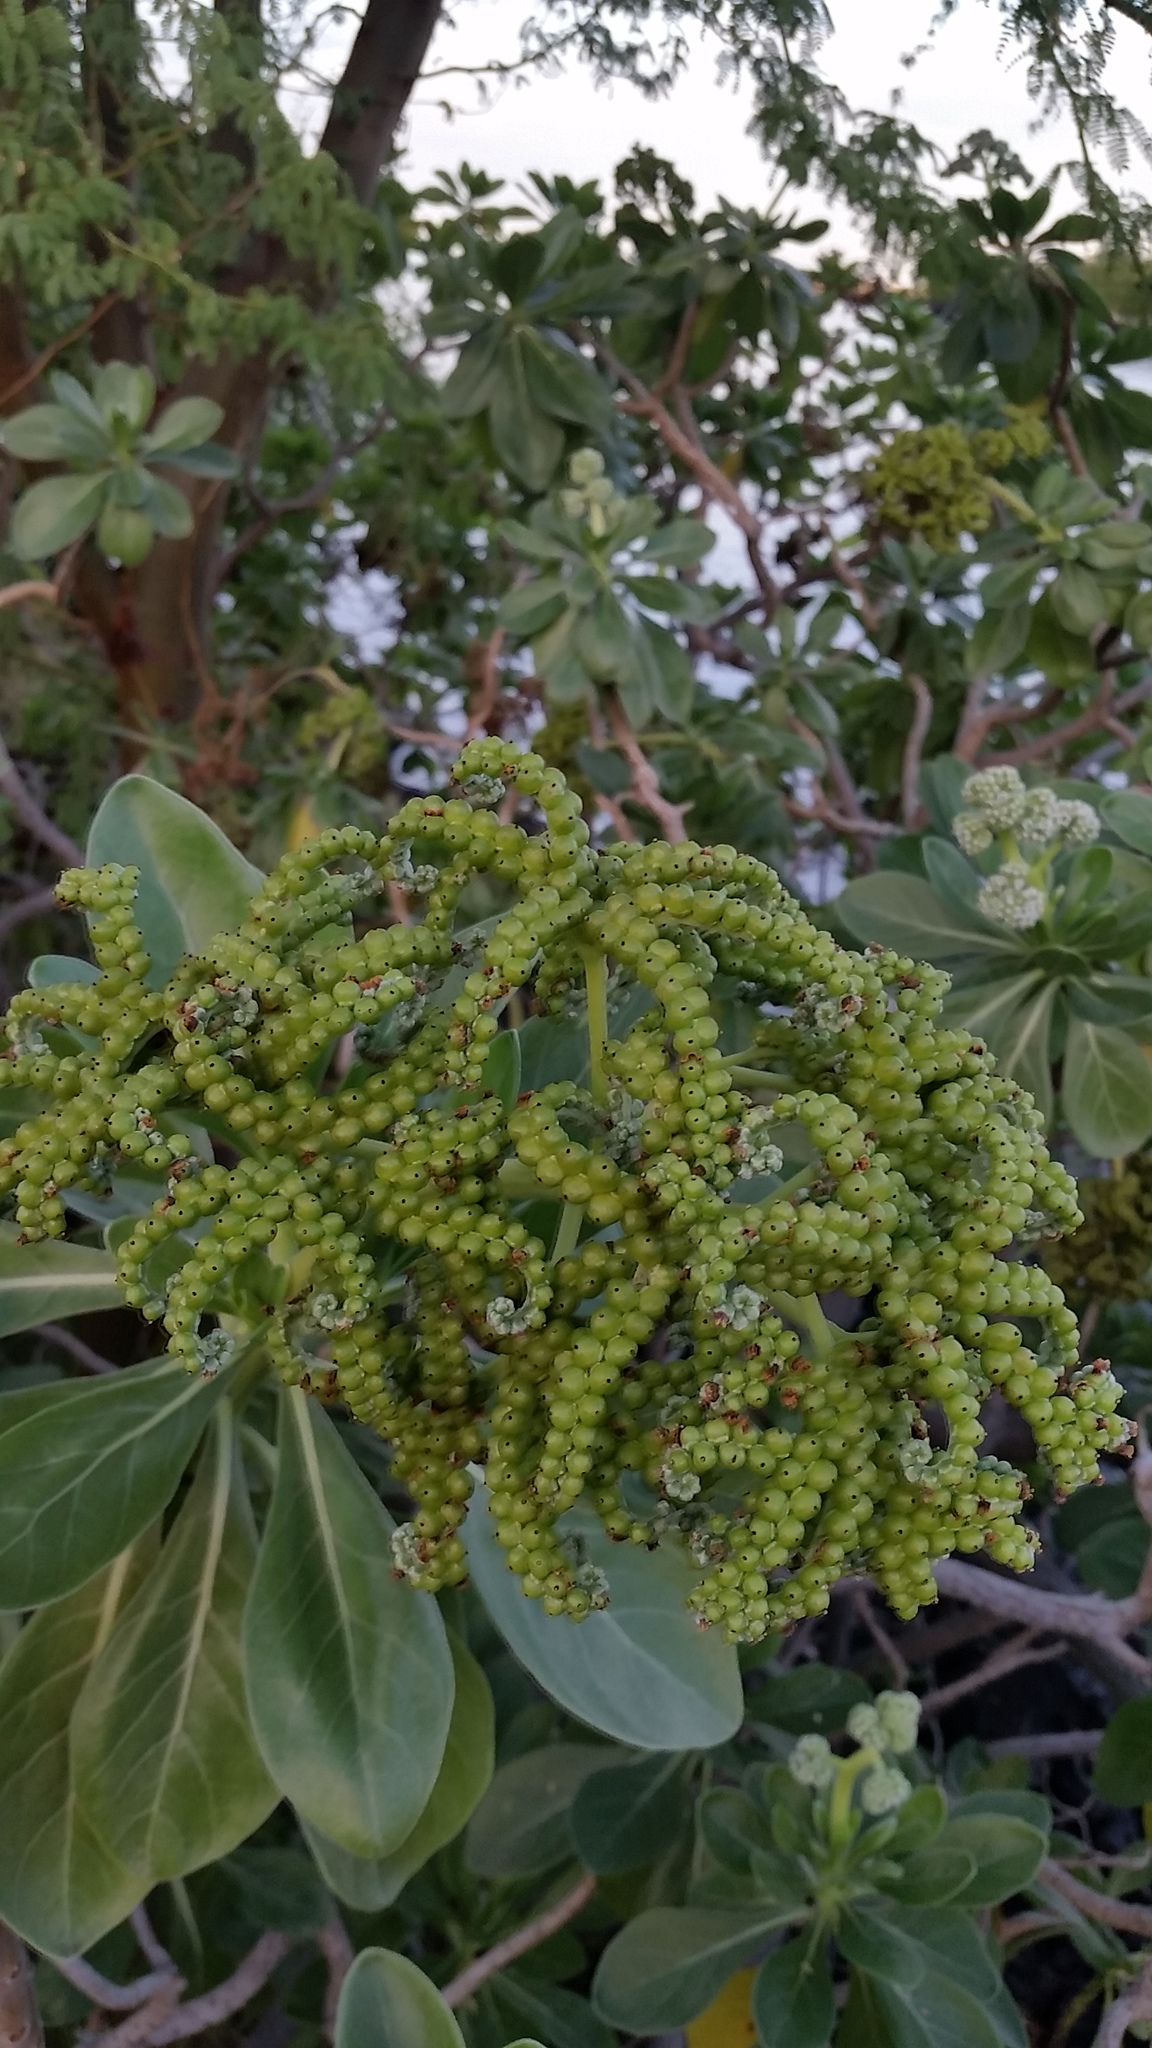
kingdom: Plantae
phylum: Tracheophyta
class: Magnoliopsida
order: Boraginales
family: Heliotropiaceae
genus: Heliotropium
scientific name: Heliotropium velutinum
